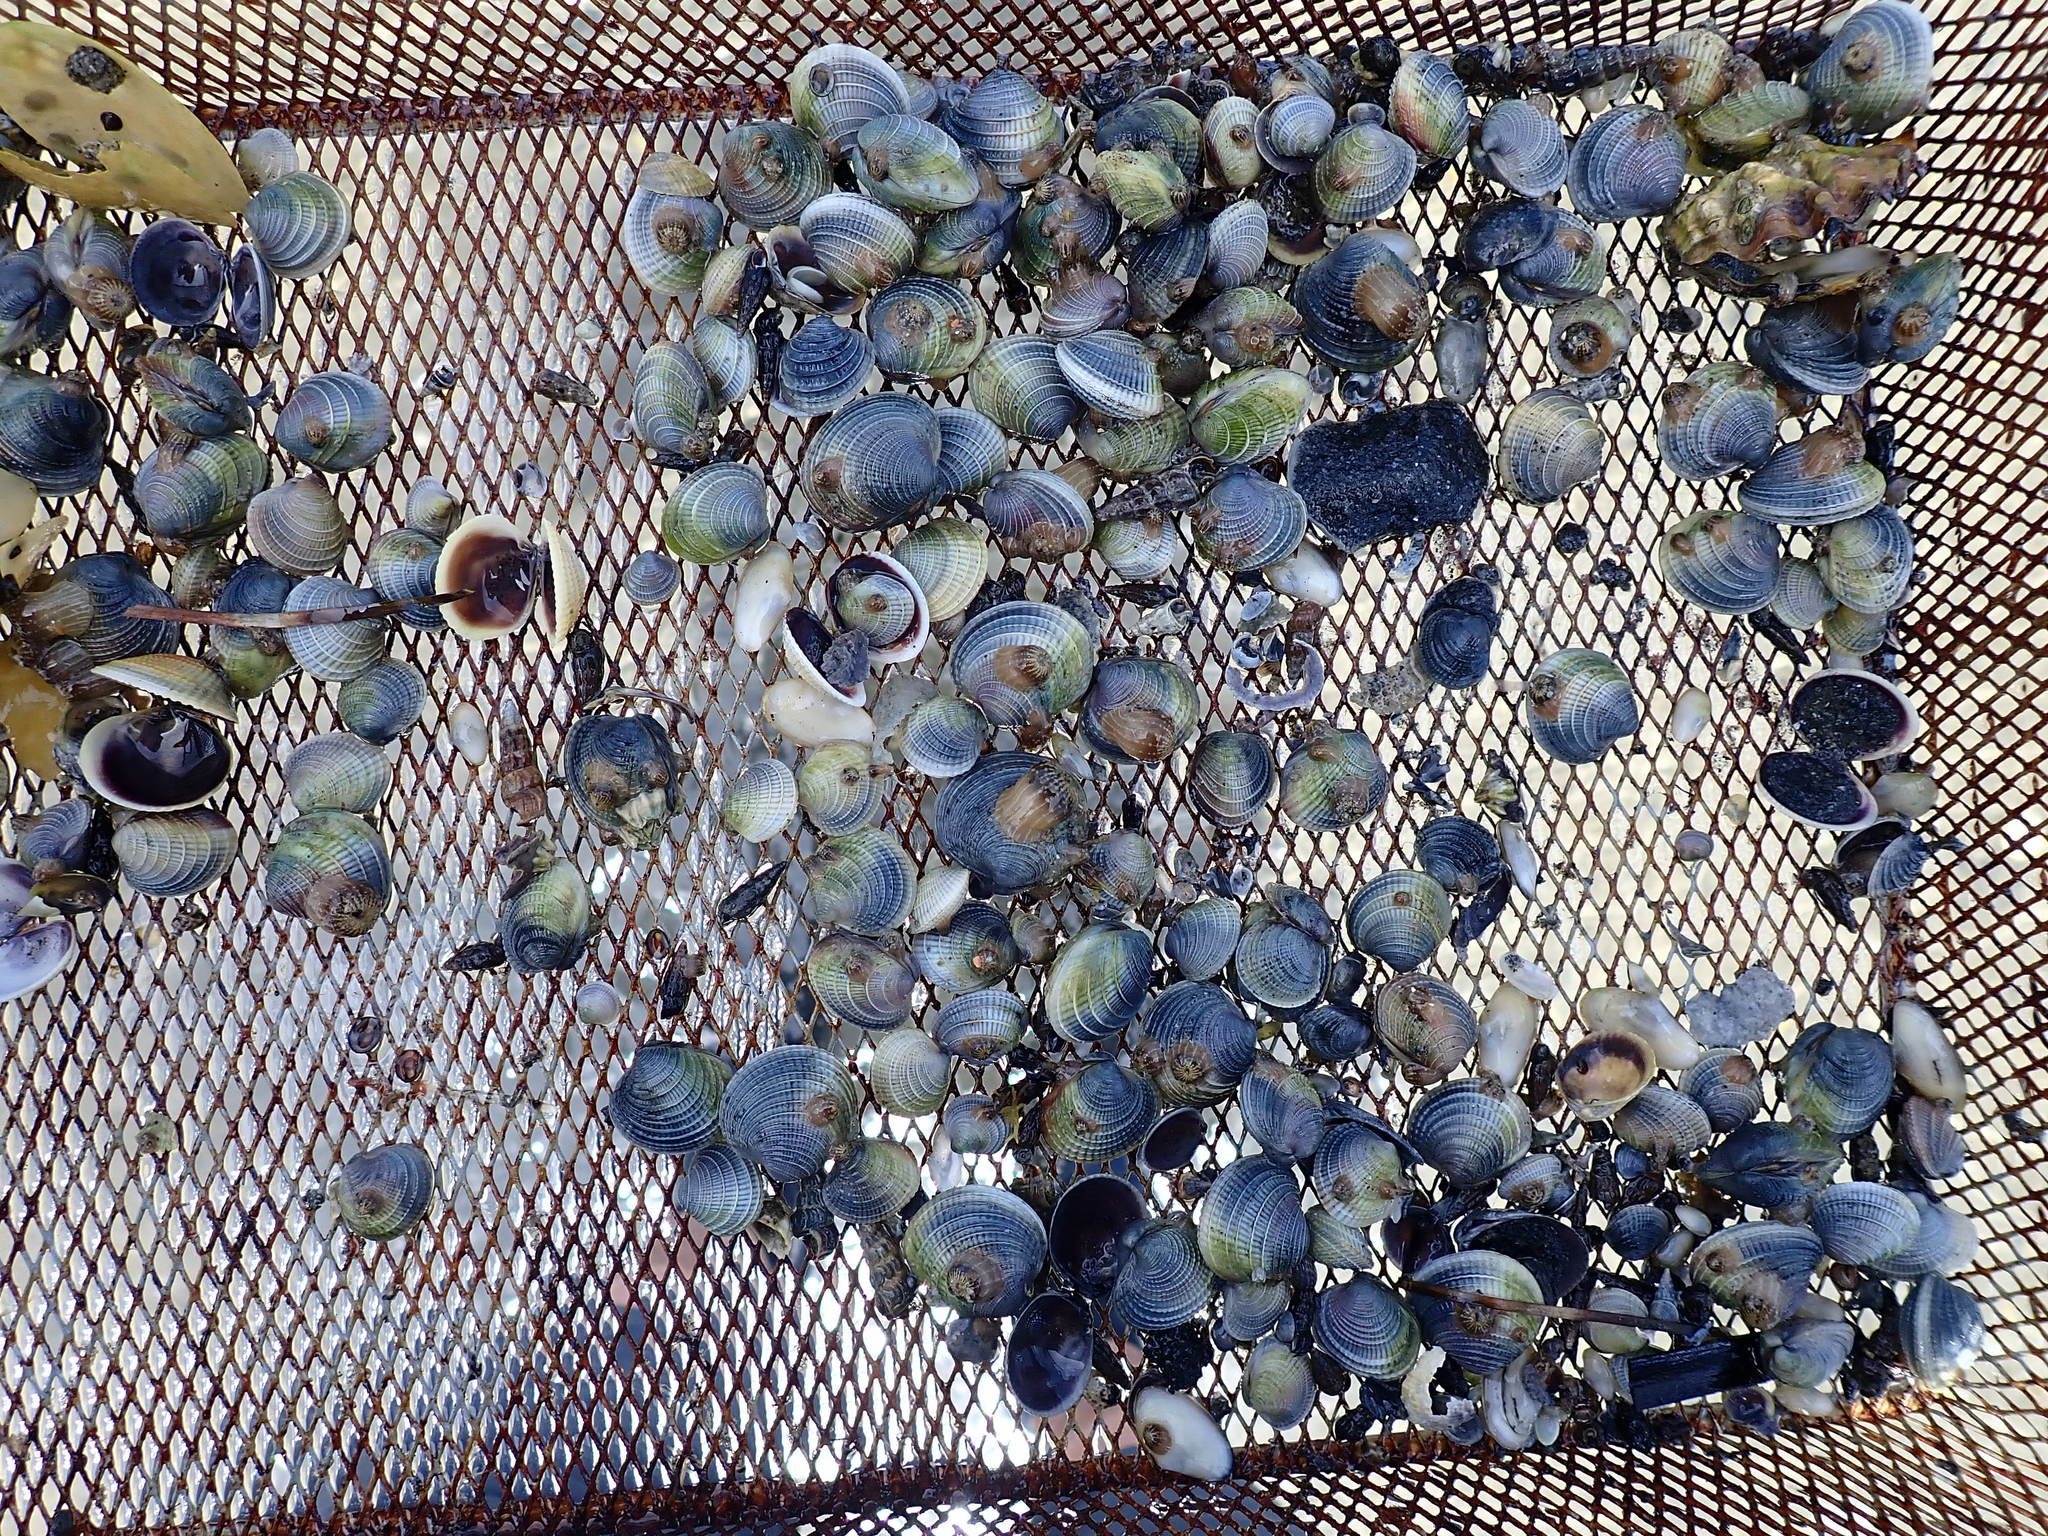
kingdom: Animalia
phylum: Mollusca
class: Bivalvia
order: Venerida
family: Veneridae
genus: Austrovenus
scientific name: Austrovenus stutchburyi
